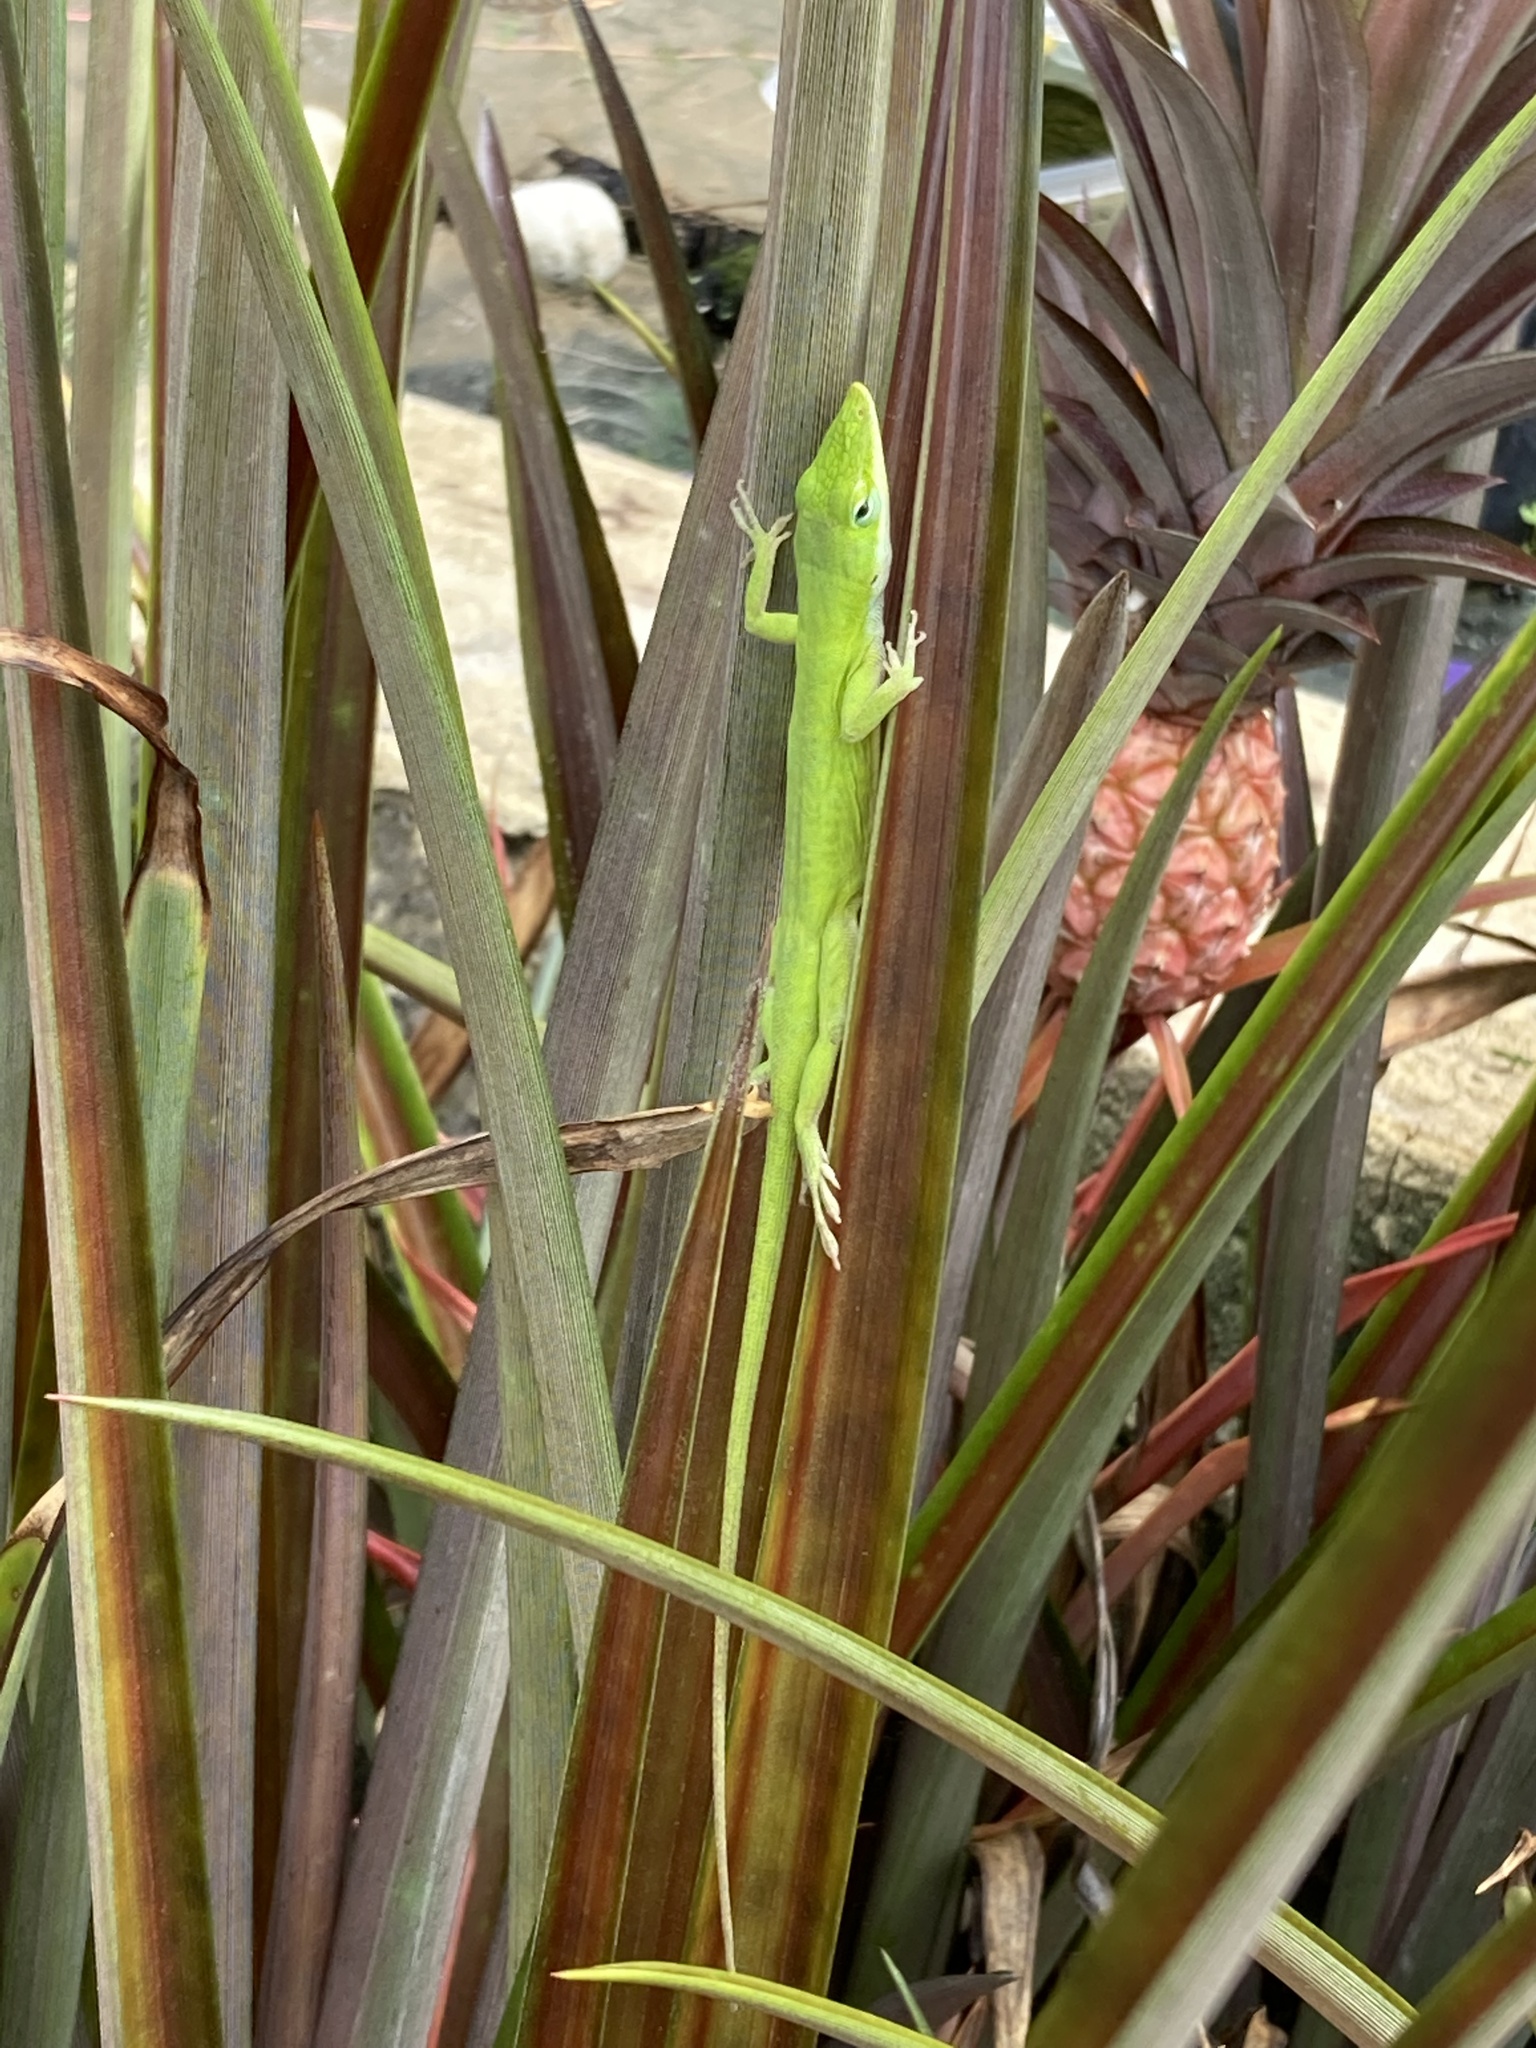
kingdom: Animalia
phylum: Chordata
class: Squamata
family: Dactyloidae
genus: Anolis
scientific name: Anolis carolinensis
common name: Green anole
